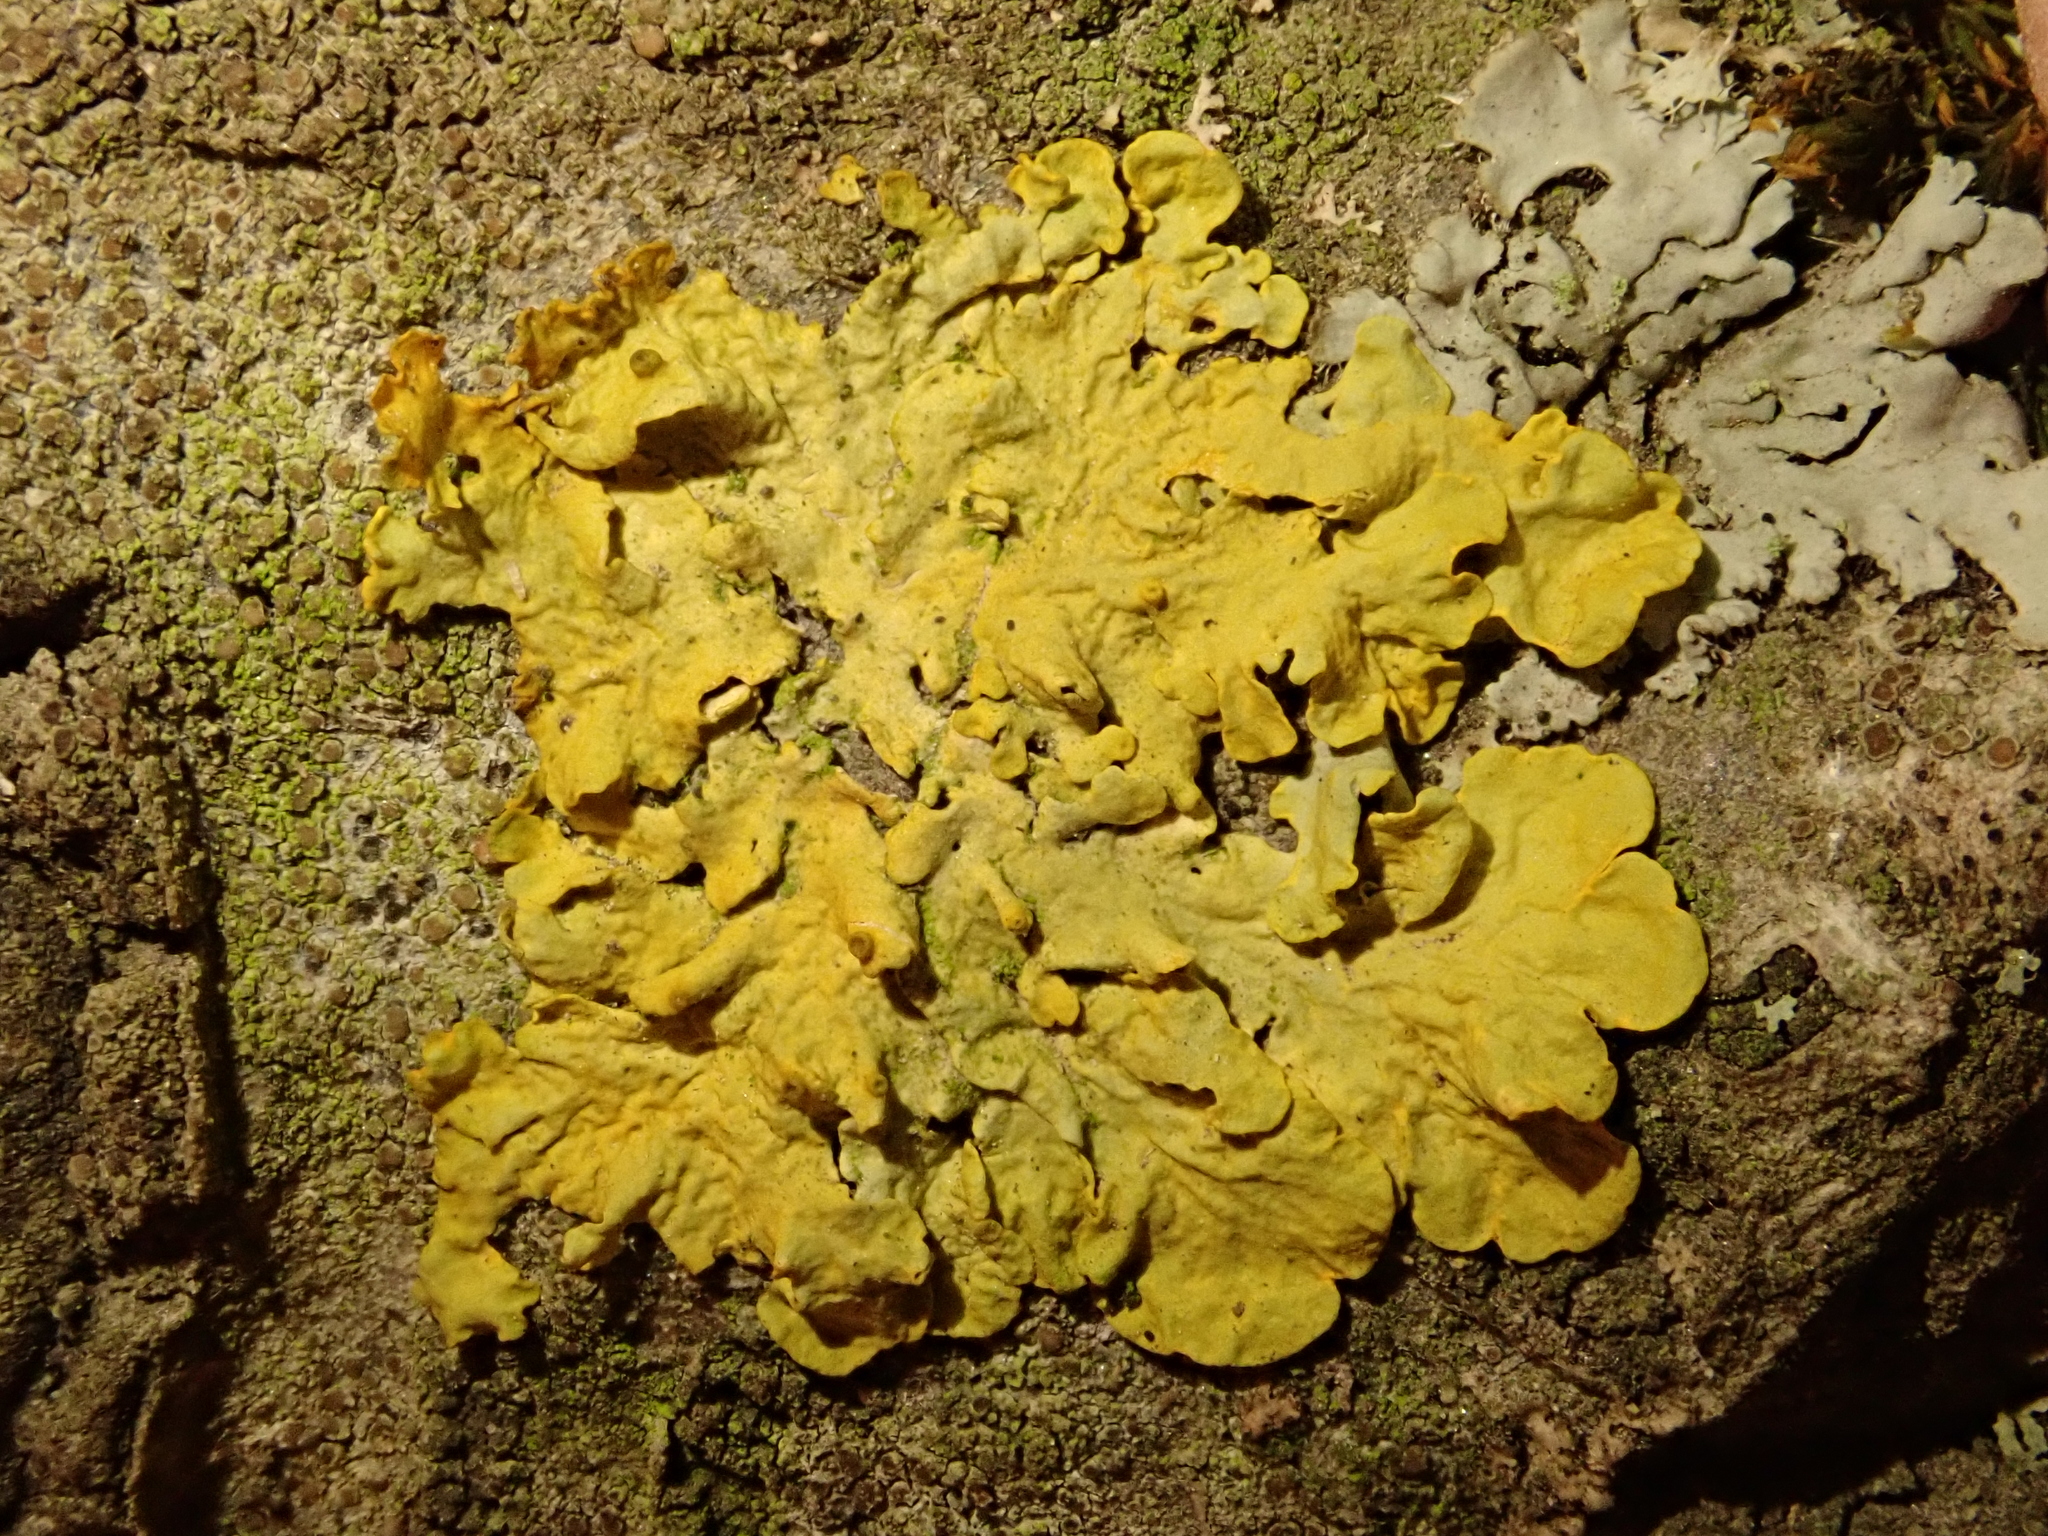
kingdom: Fungi
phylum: Ascomycota
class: Lecanoromycetes
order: Teloschistales
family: Teloschistaceae
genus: Xanthoria
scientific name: Xanthoria parietina
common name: Common orange lichen
